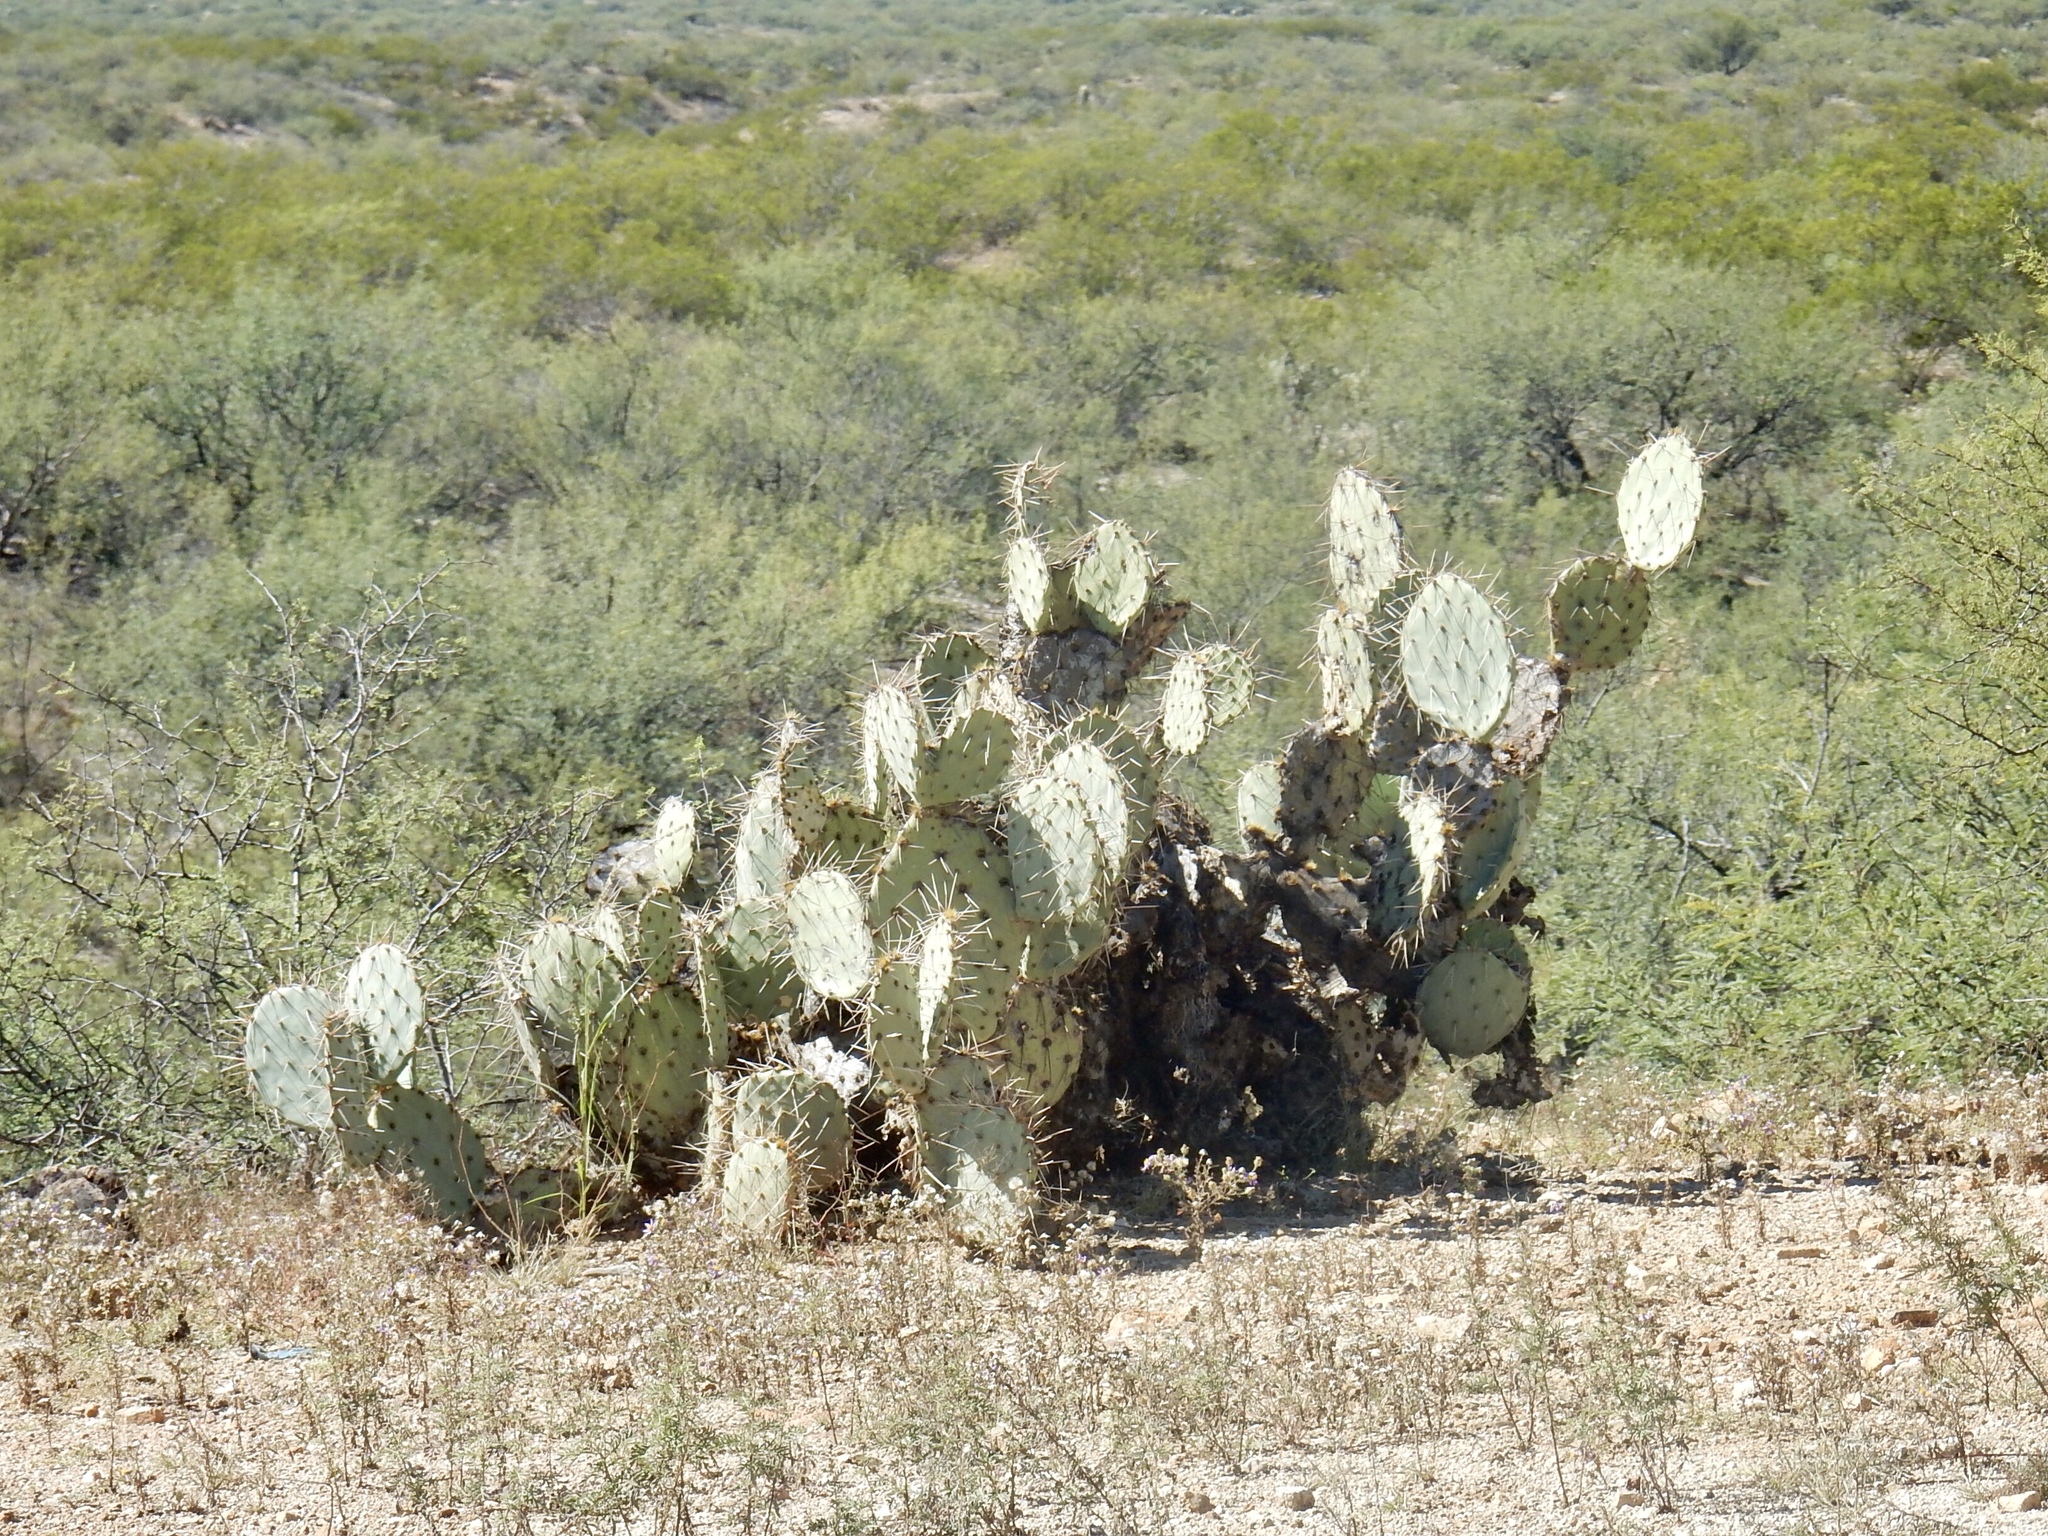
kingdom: Plantae
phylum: Tracheophyta
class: Magnoliopsida
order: Caryophyllales
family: Cactaceae
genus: Opuntia
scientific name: Opuntia engelmannii
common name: Cactus-apple
